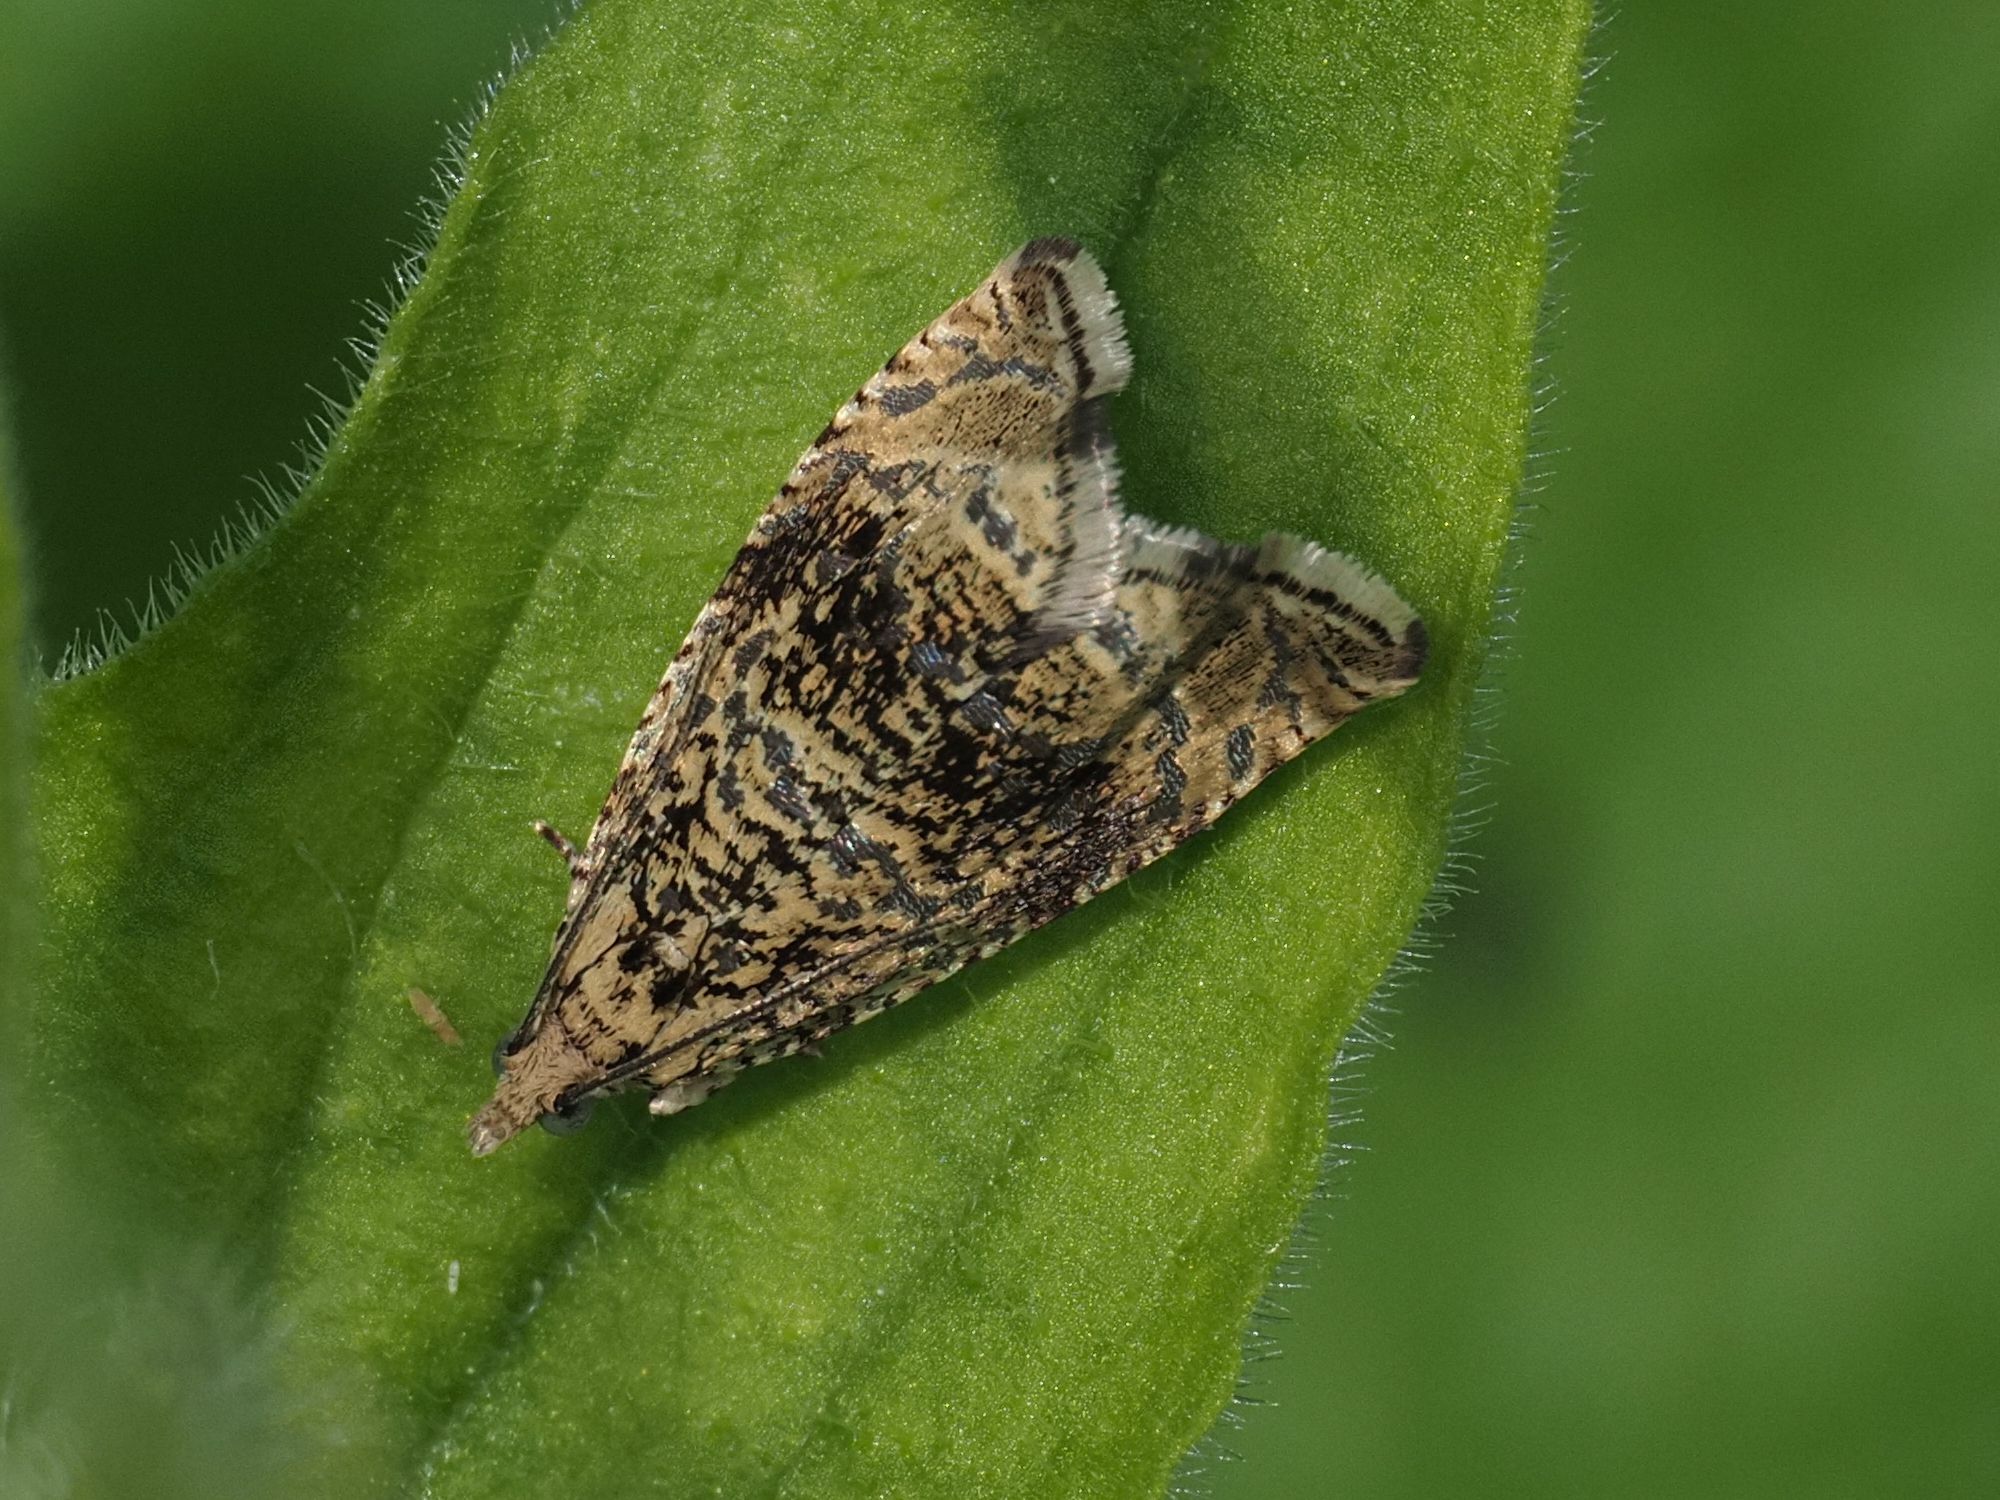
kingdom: Animalia
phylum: Arthropoda
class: Insecta
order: Lepidoptera
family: Tortricidae
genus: Syricoris
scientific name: Syricoris lacunana
